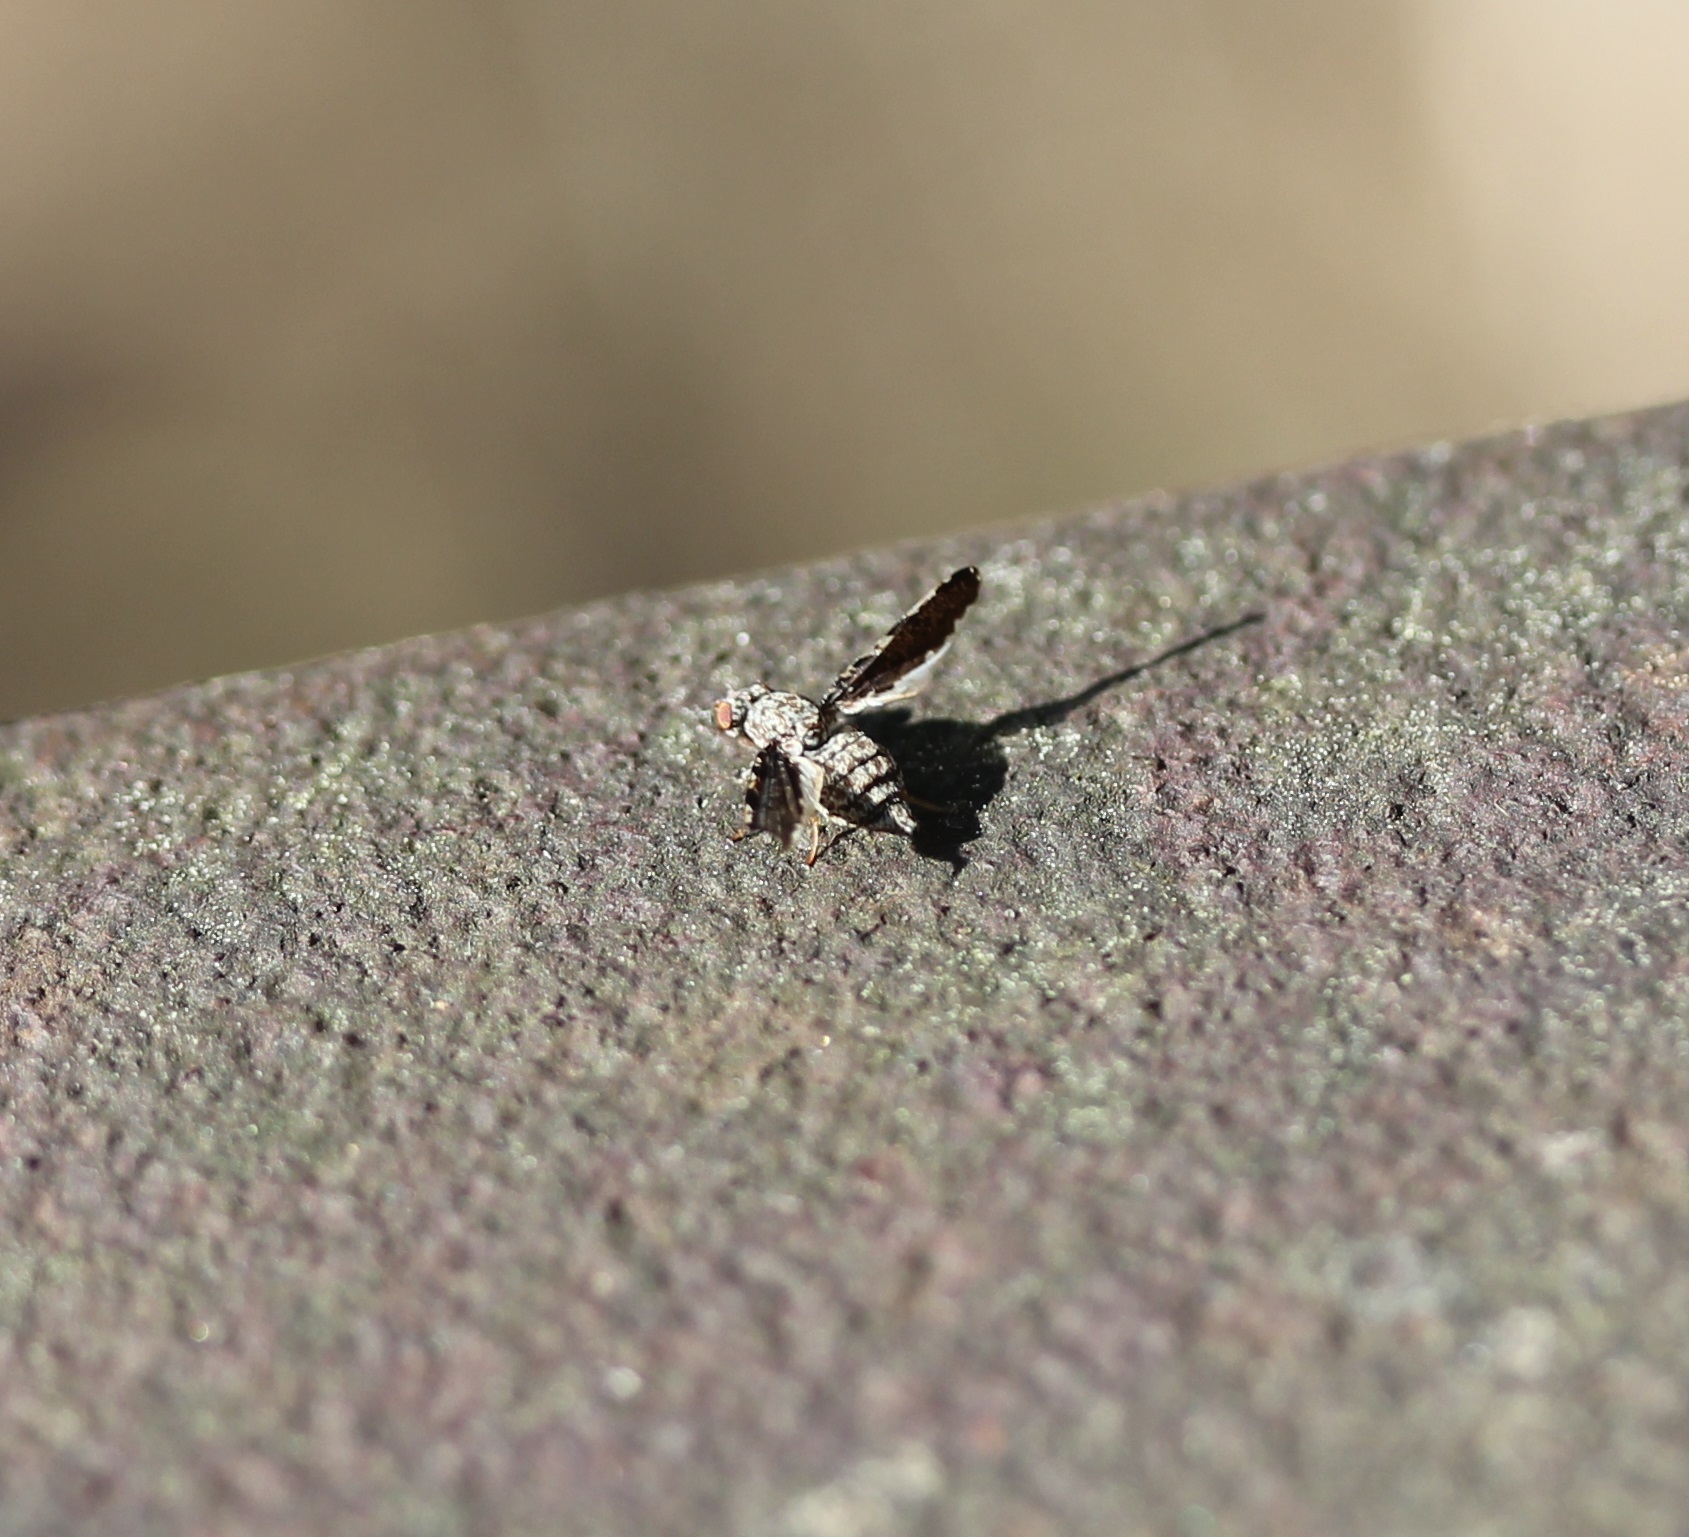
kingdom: Animalia
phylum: Arthropoda
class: Insecta
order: Diptera
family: Ulidiidae
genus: Callopistromyia
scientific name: Callopistromyia strigula
